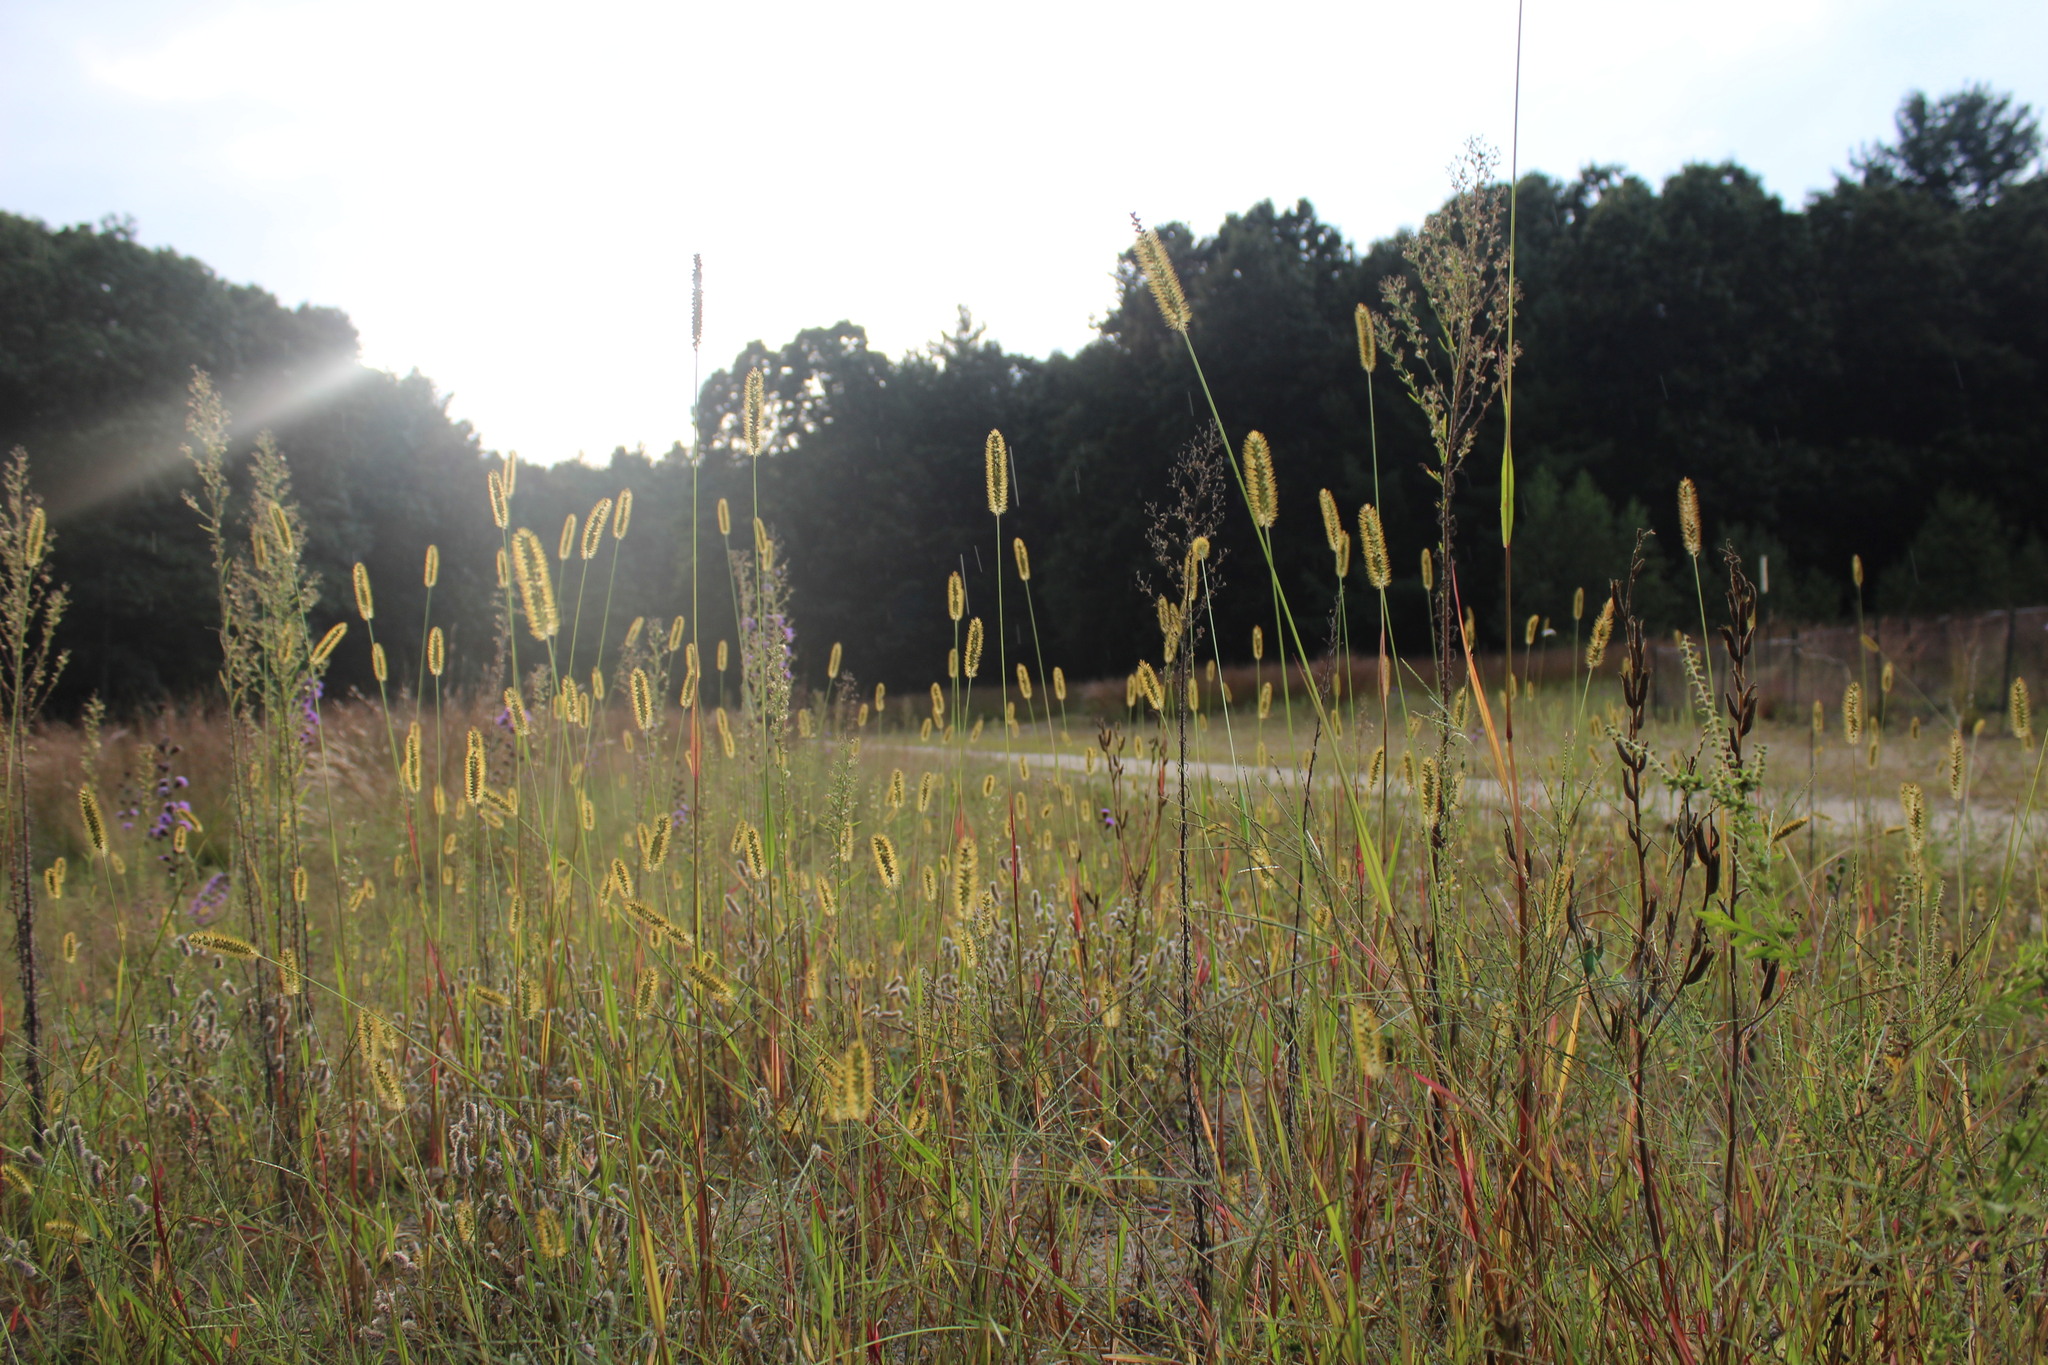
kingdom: Plantae
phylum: Tracheophyta
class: Liliopsida
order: Poales
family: Poaceae
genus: Setaria
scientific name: Setaria pumila
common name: Yellow bristle-grass
